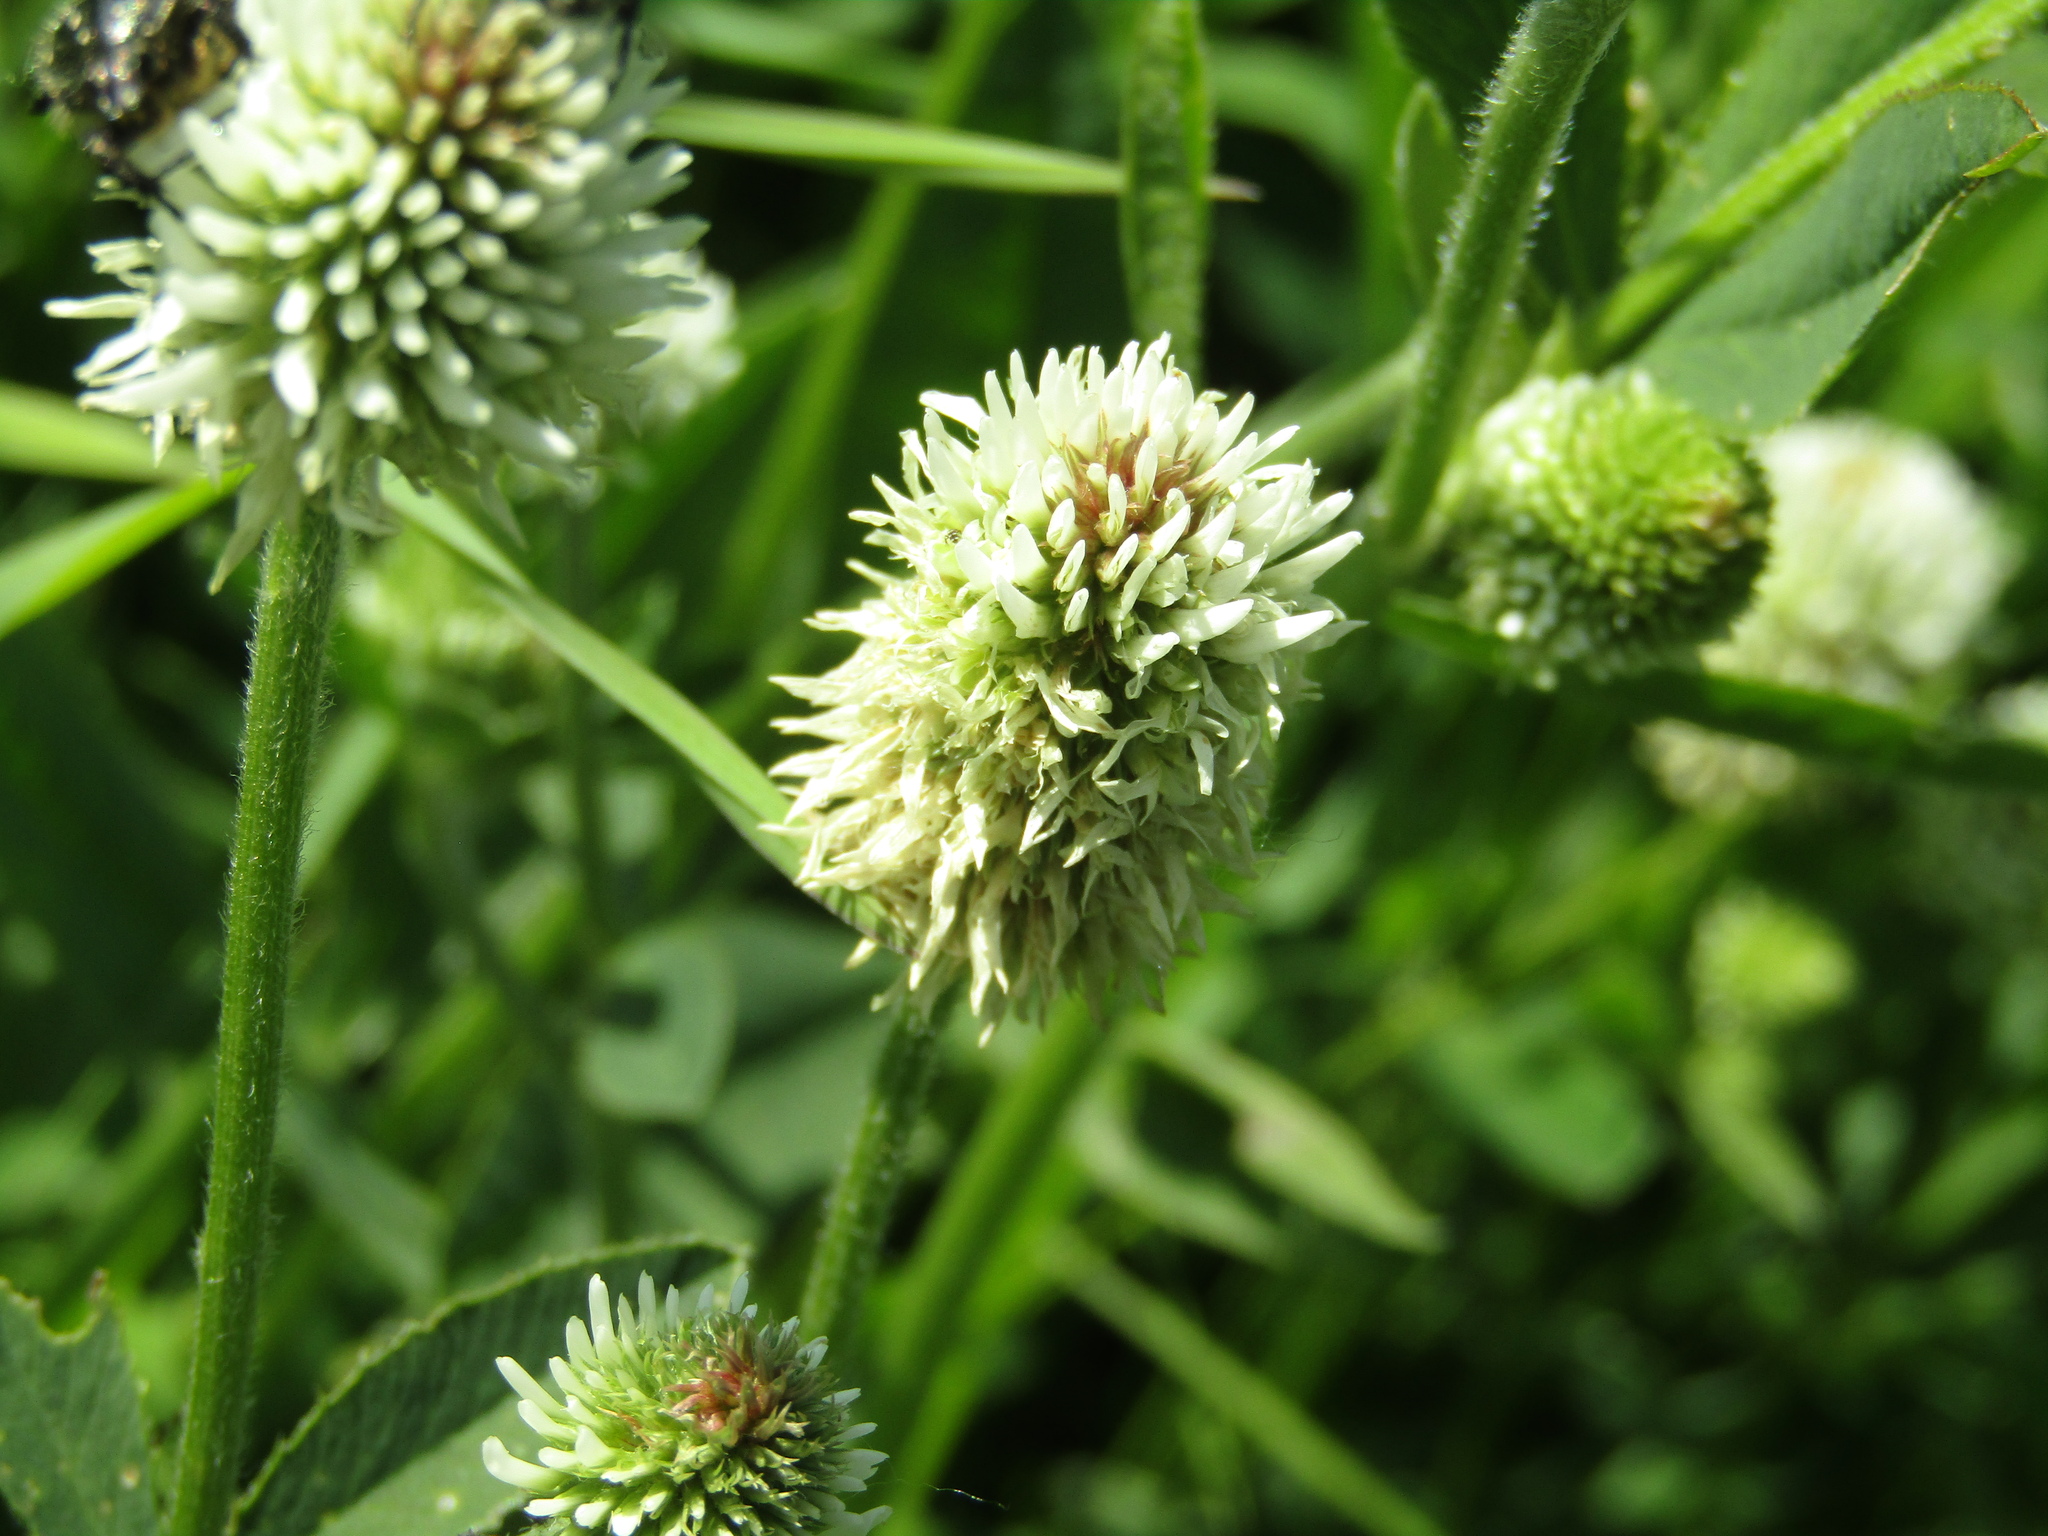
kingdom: Plantae
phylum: Tracheophyta
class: Magnoliopsida
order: Fabales
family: Fabaceae
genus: Trifolium
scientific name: Trifolium montanum
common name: Mountain clover
